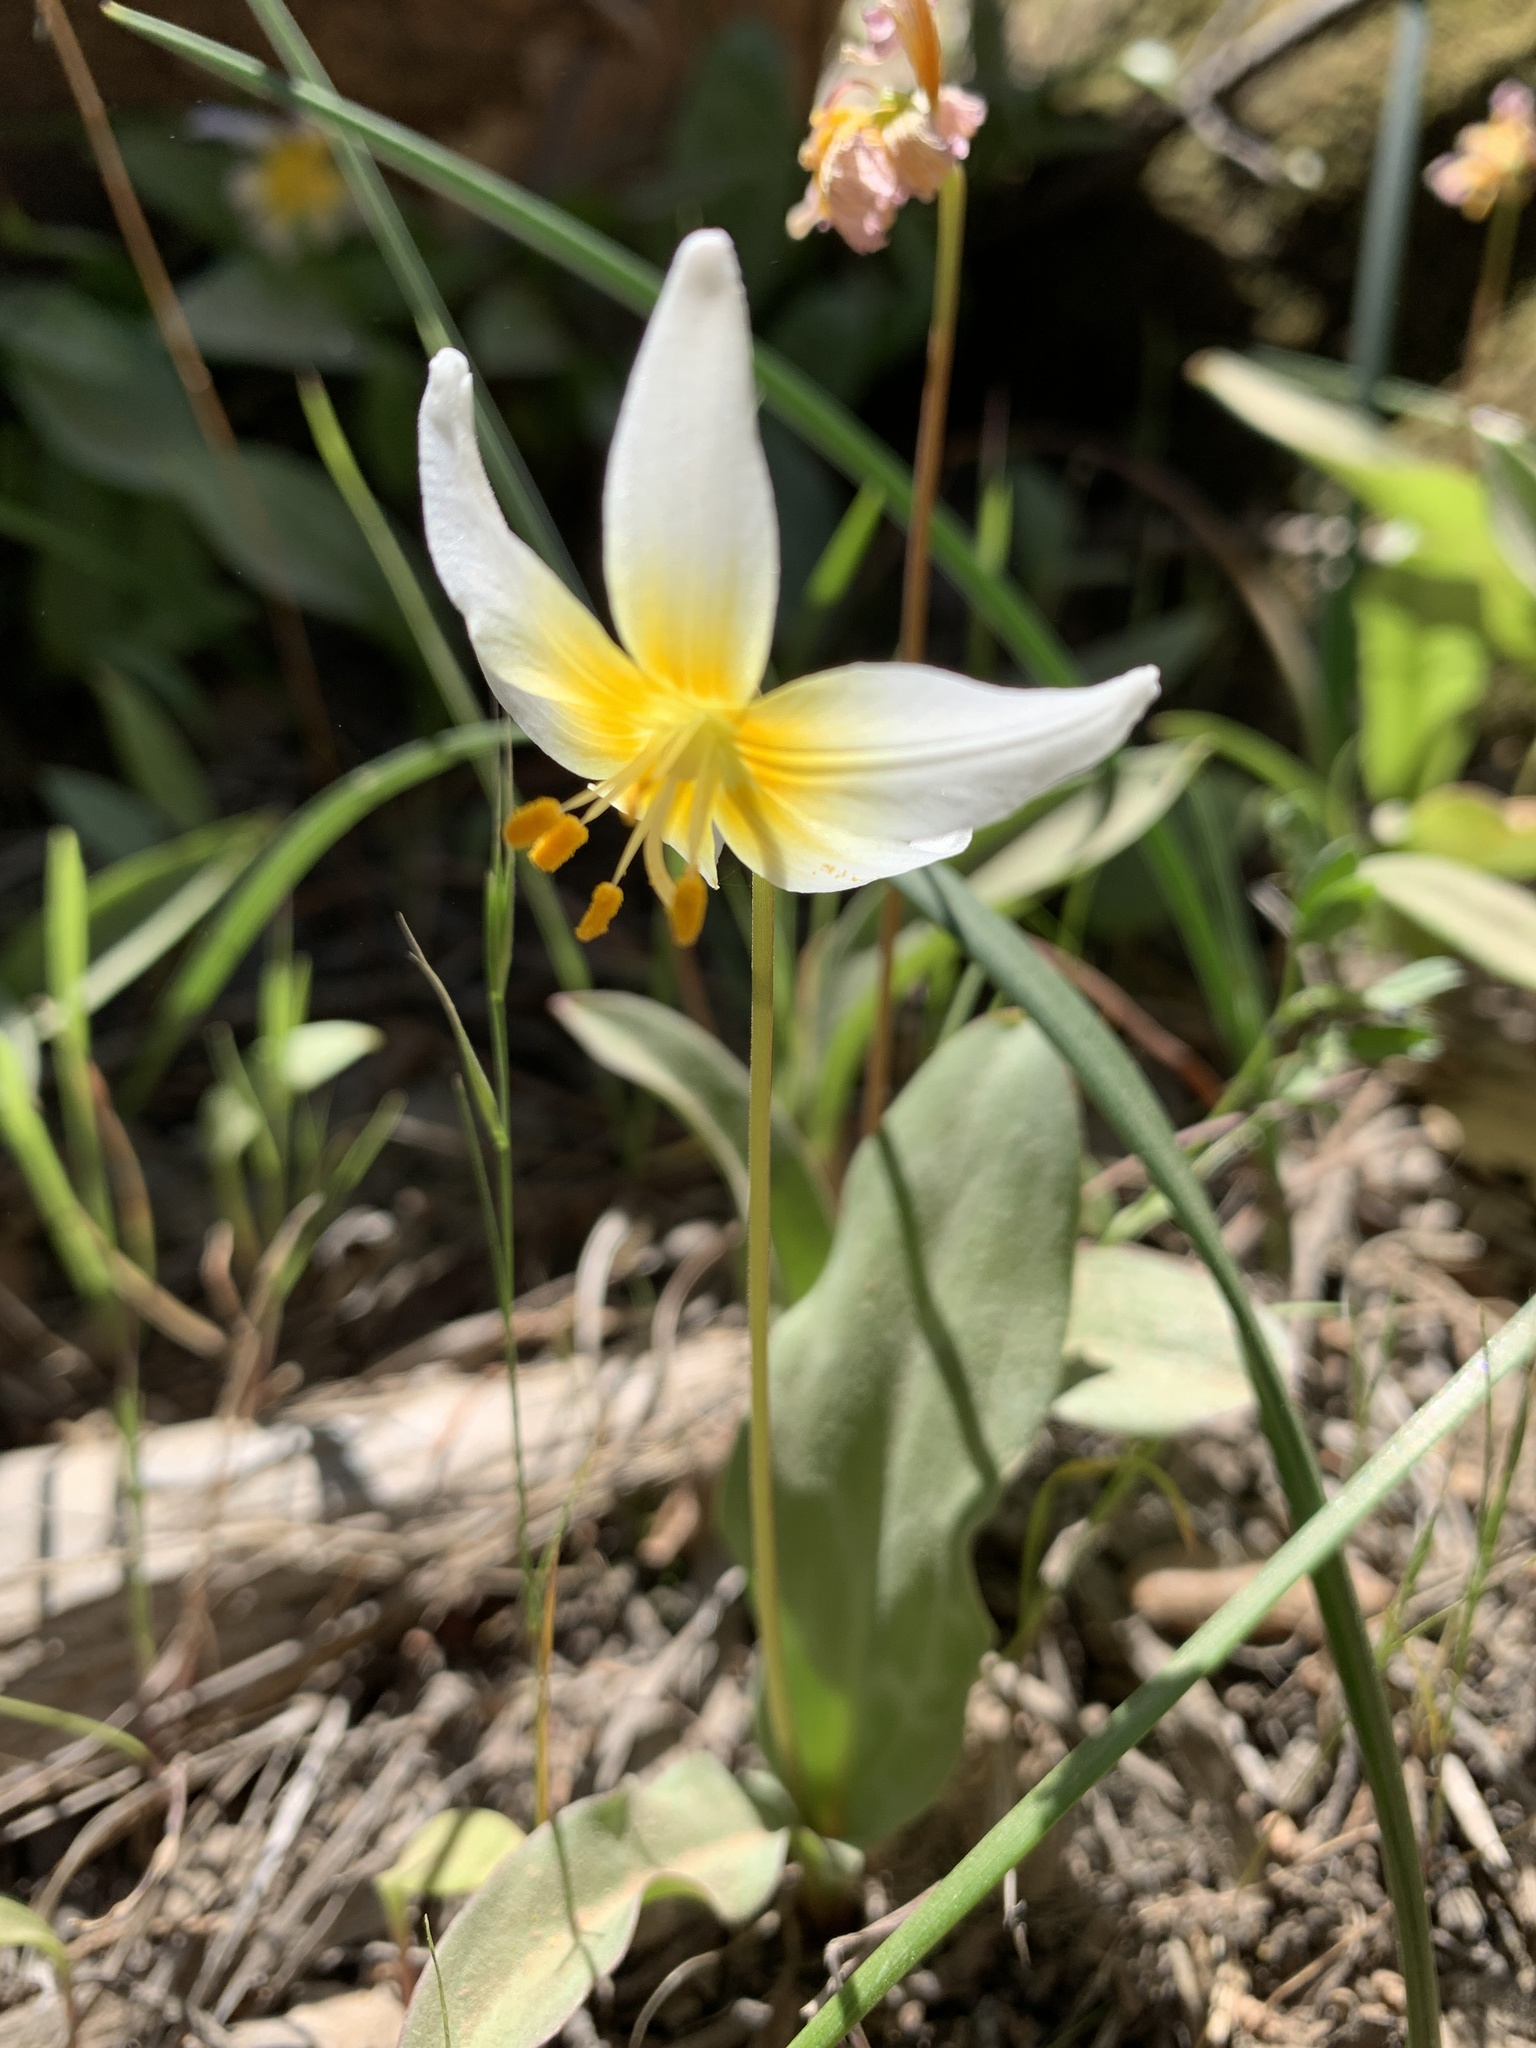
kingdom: Plantae
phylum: Tracheophyta
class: Liliopsida
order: Liliales
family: Liliaceae
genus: Erythronium
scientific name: Erythronium helenae
